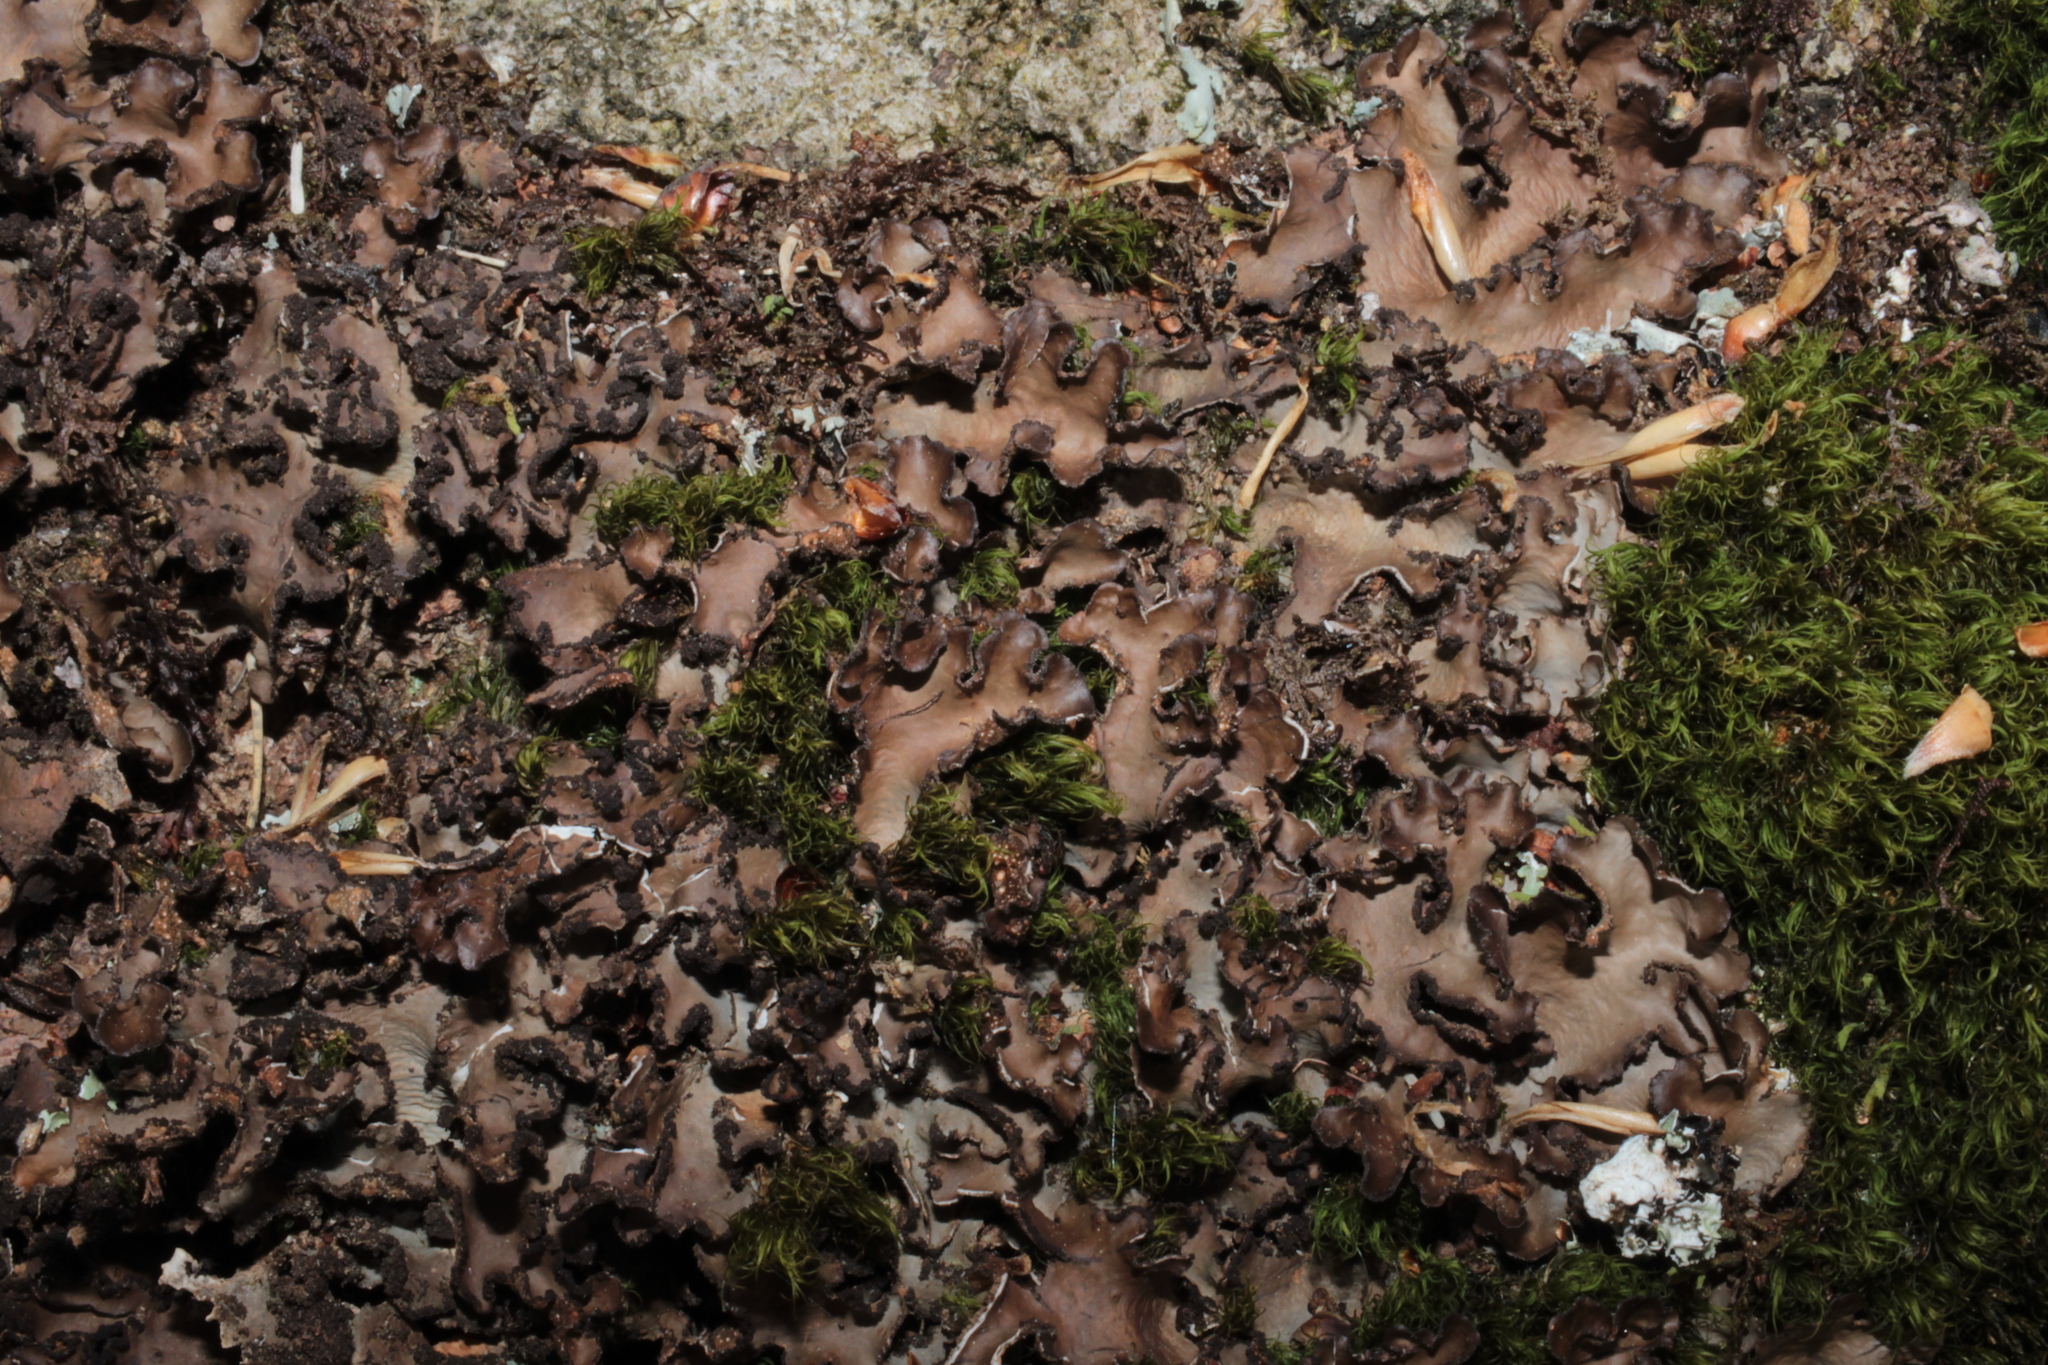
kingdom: Fungi
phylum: Ascomycota
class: Lecanoromycetes
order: Peltigerales
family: Lobariaceae
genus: Sticta
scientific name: Sticta beauvoisii
